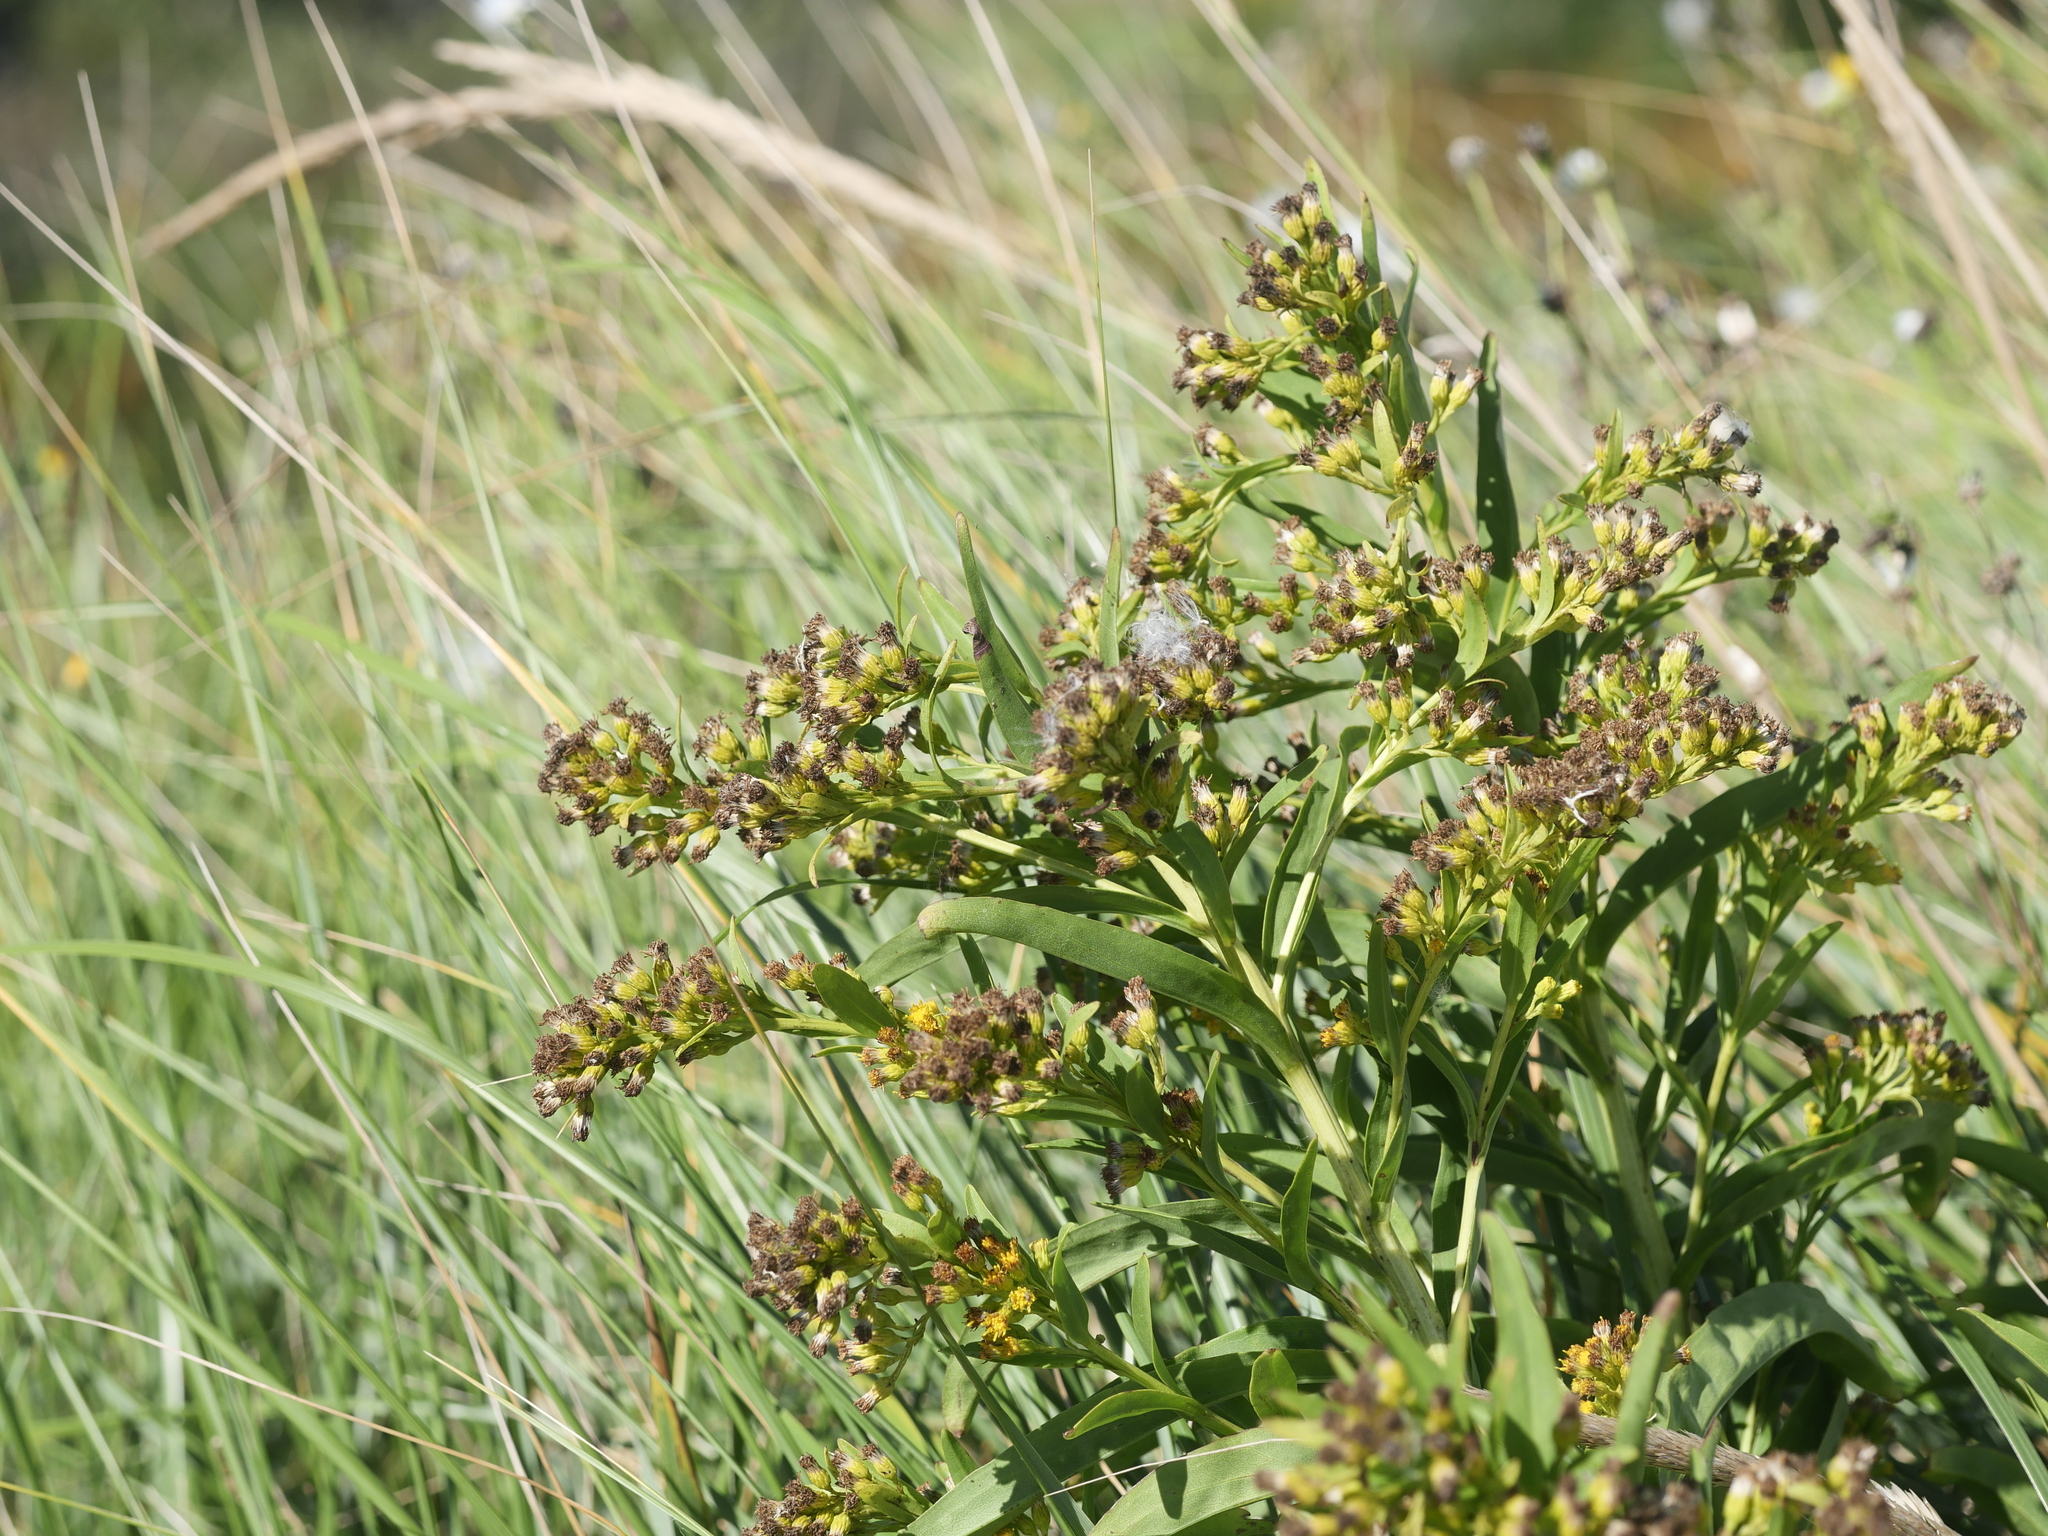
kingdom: Plantae
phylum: Tracheophyta
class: Magnoliopsida
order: Asterales
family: Asteraceae
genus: Solidago
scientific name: Solidago sempervirens
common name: Salt-marsh goldenrod
